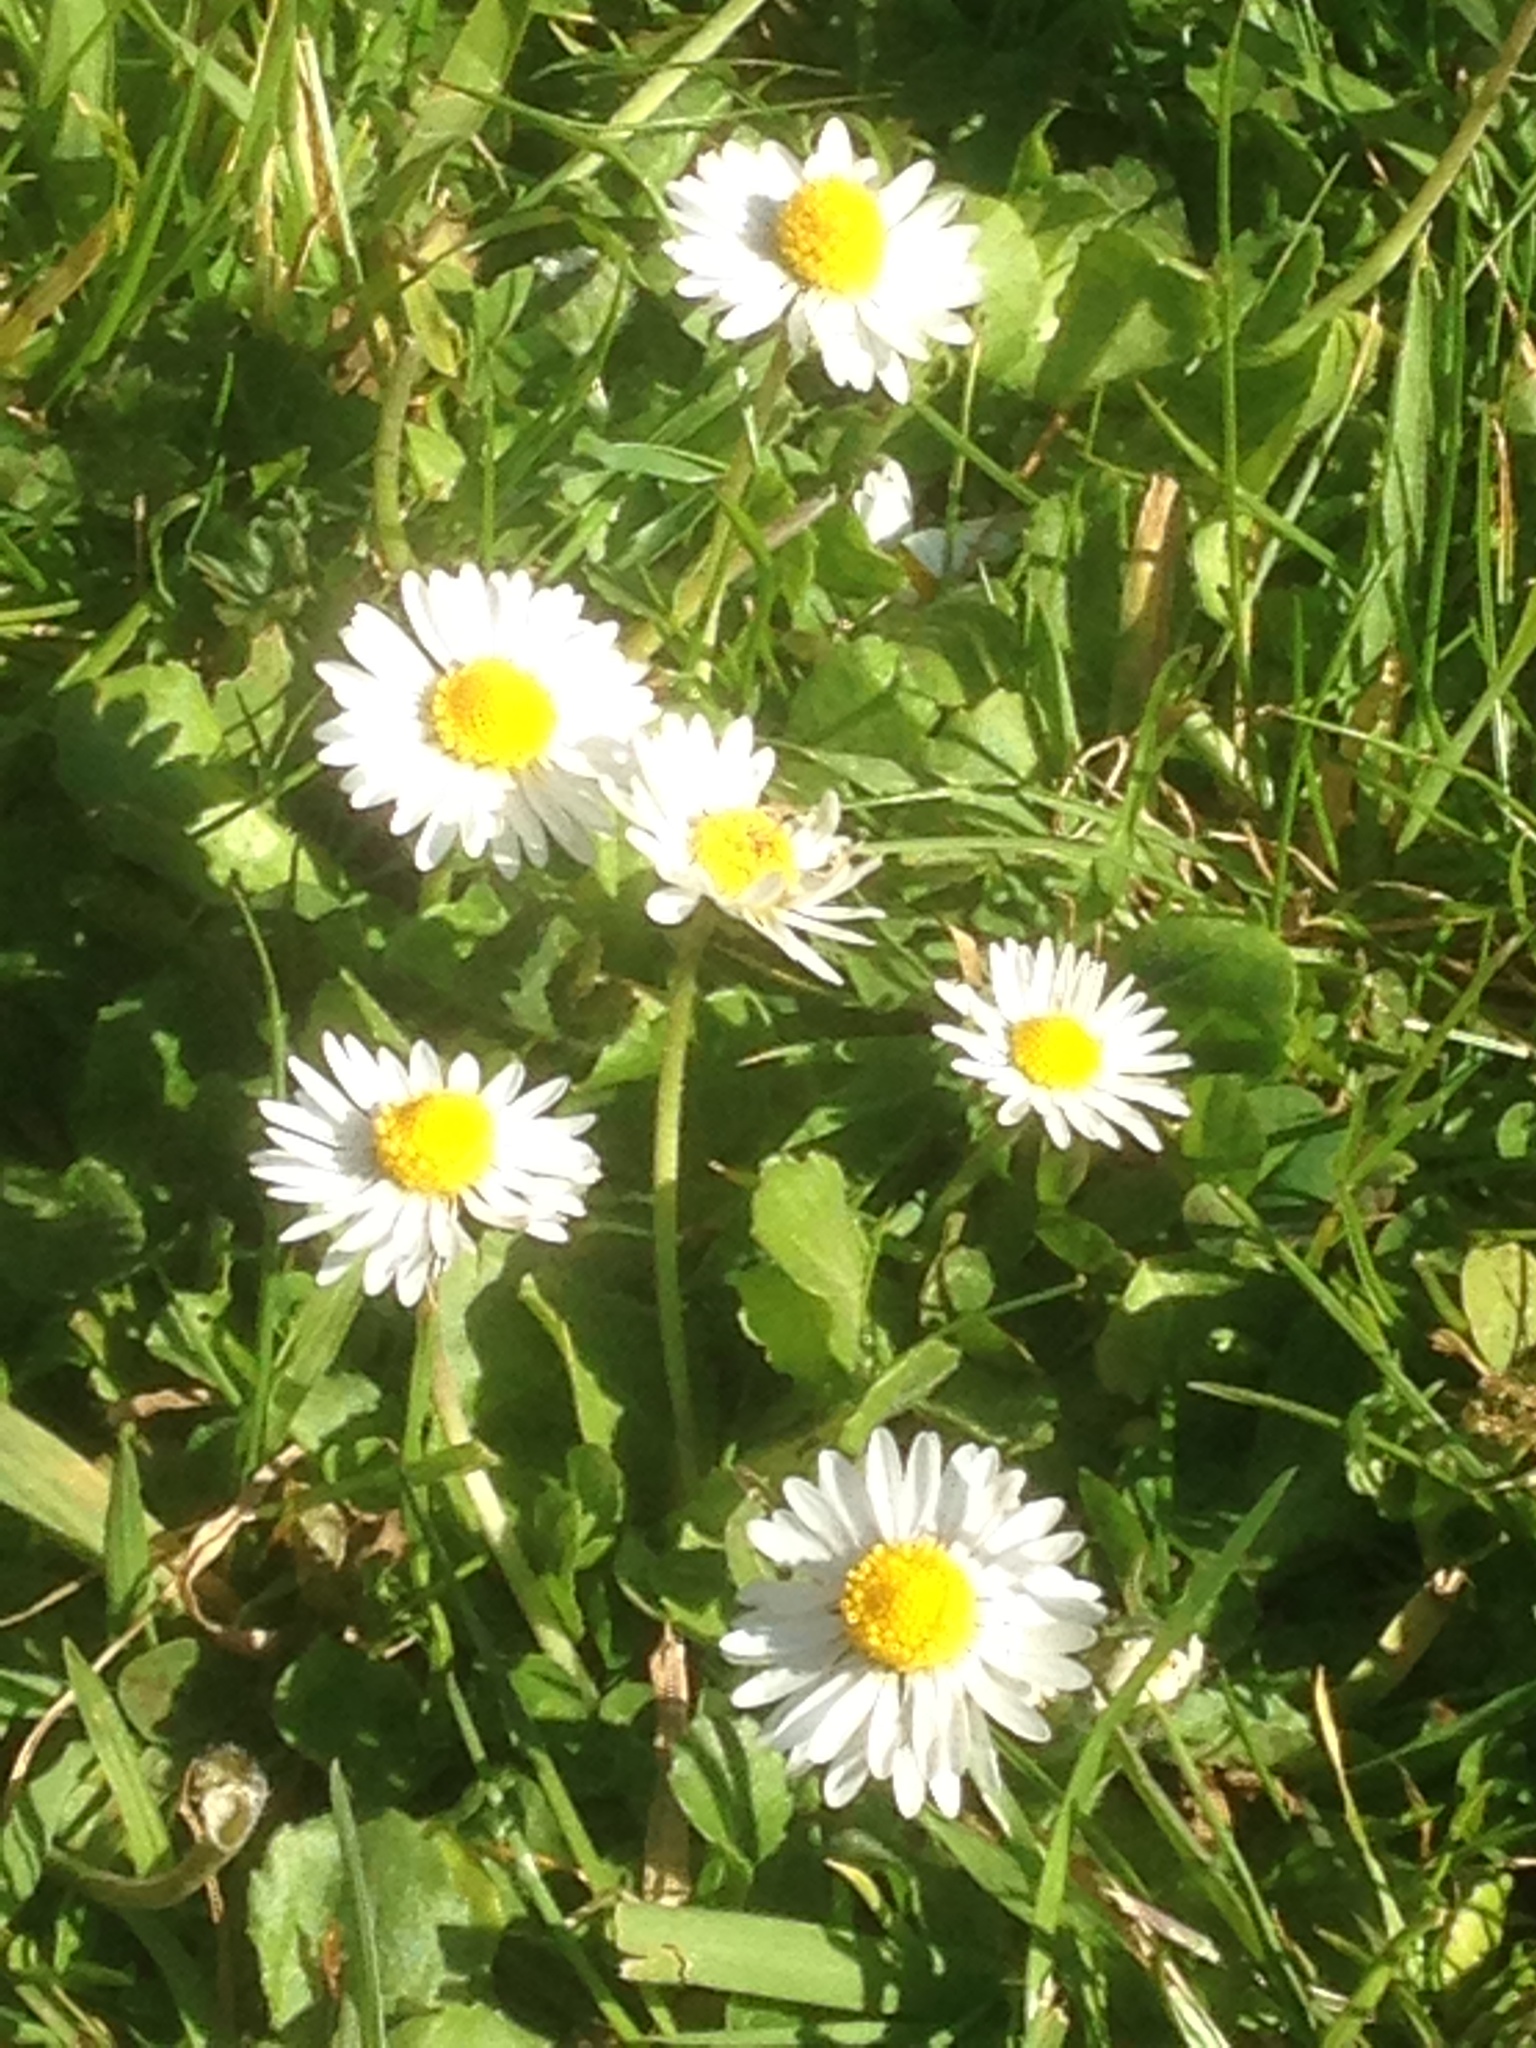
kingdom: Plantae
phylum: Tracheophyta
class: Magnoliopsida
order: Asterales
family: Asteraceae
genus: Bellis
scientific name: Bellis perennis
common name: Lawndaisy
